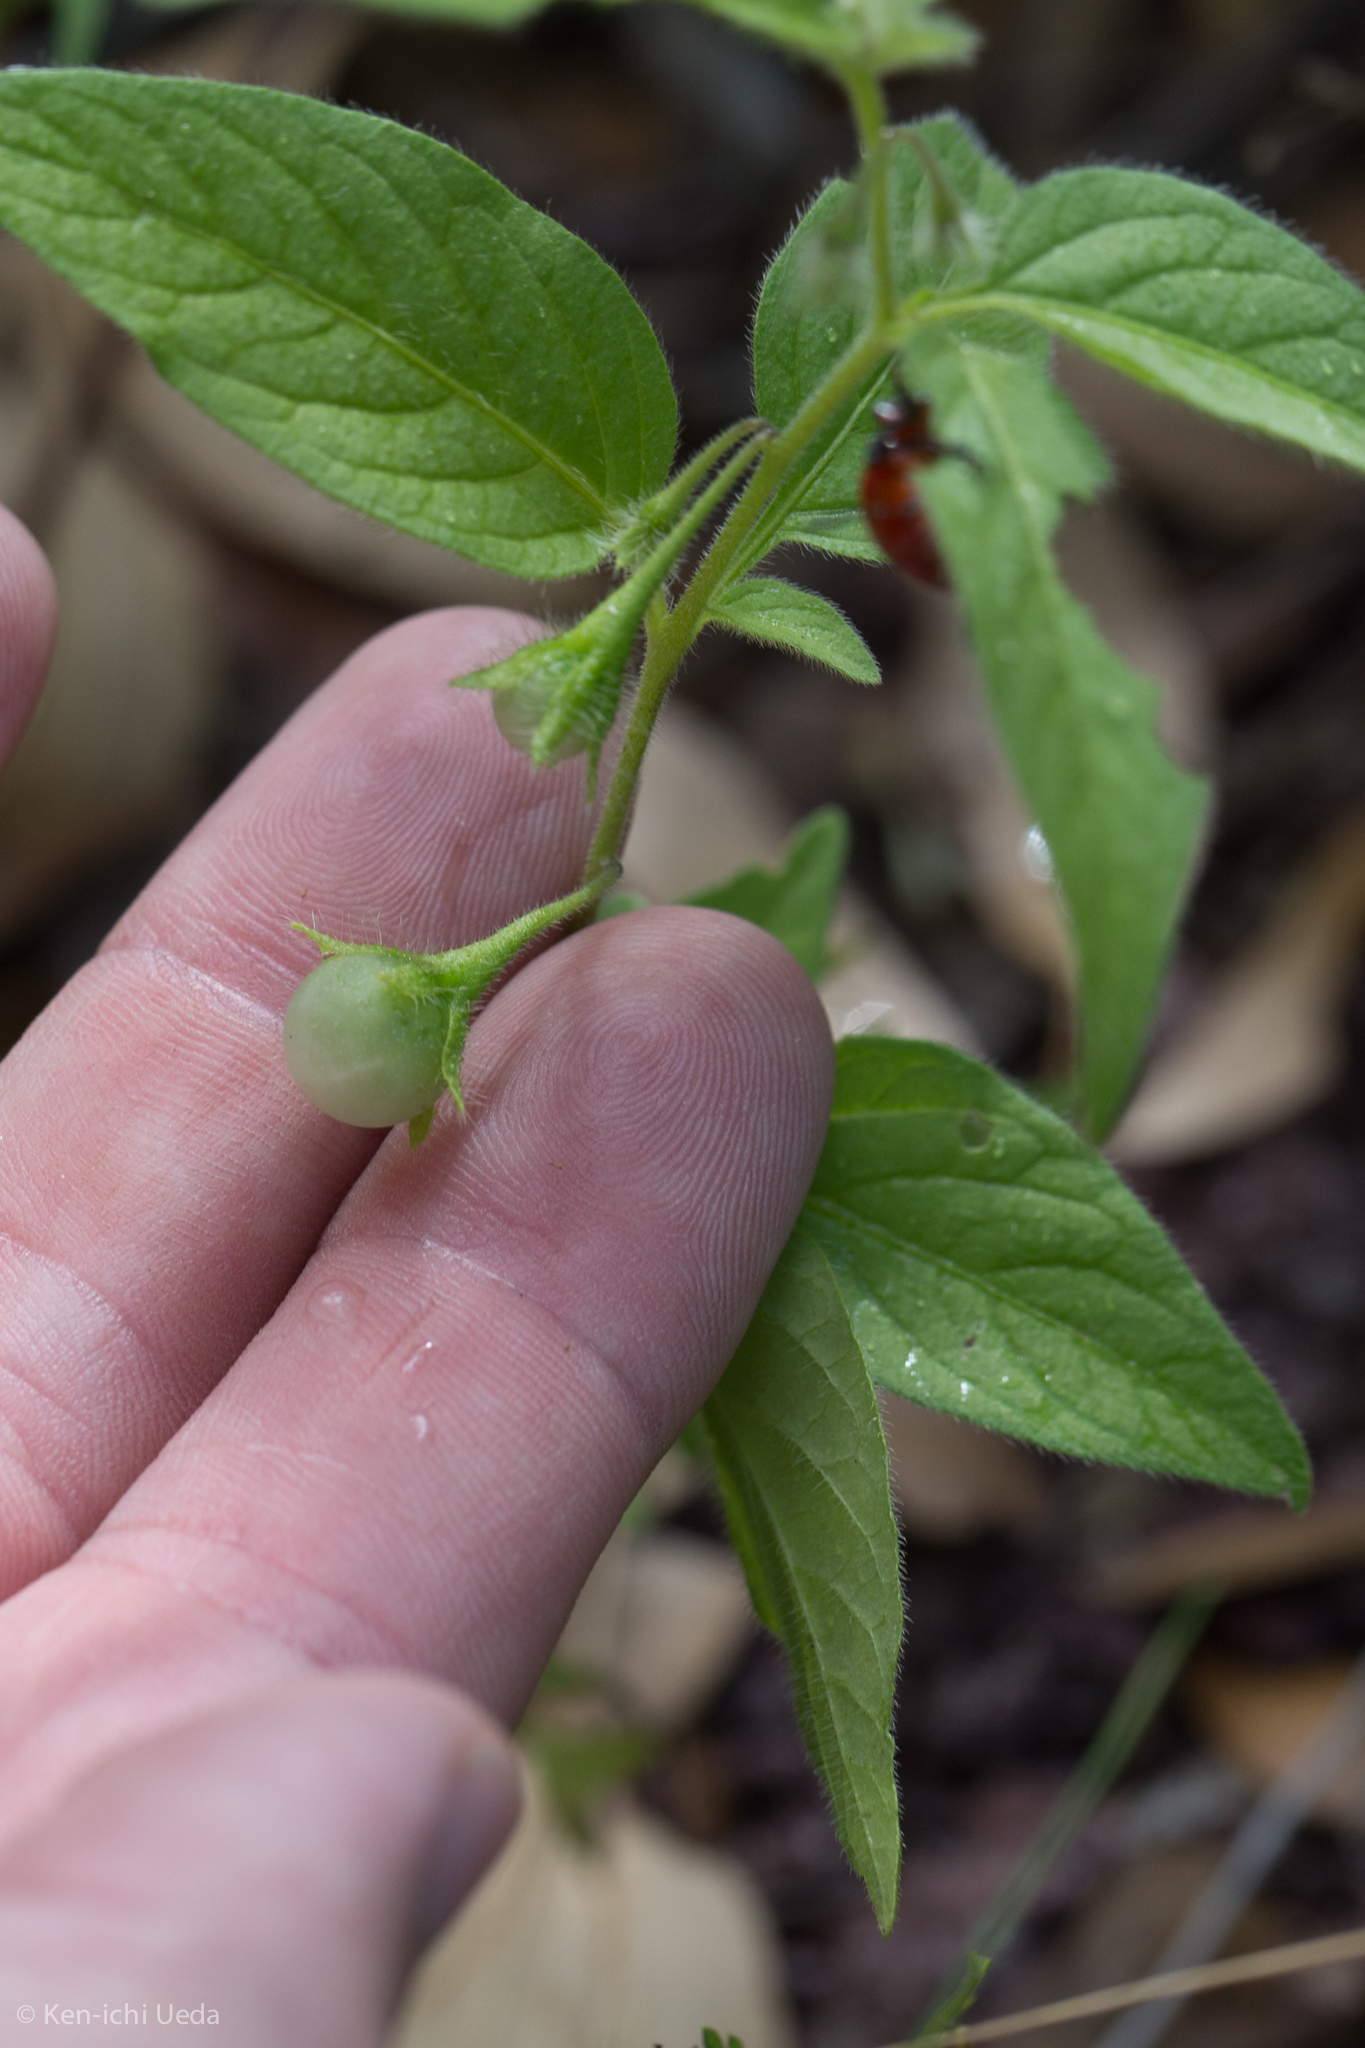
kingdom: Plantae
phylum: Tracheophyta
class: Magnoliopsida
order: Solanales
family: Solanaceae
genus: Solanum
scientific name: Solanum deflexum
